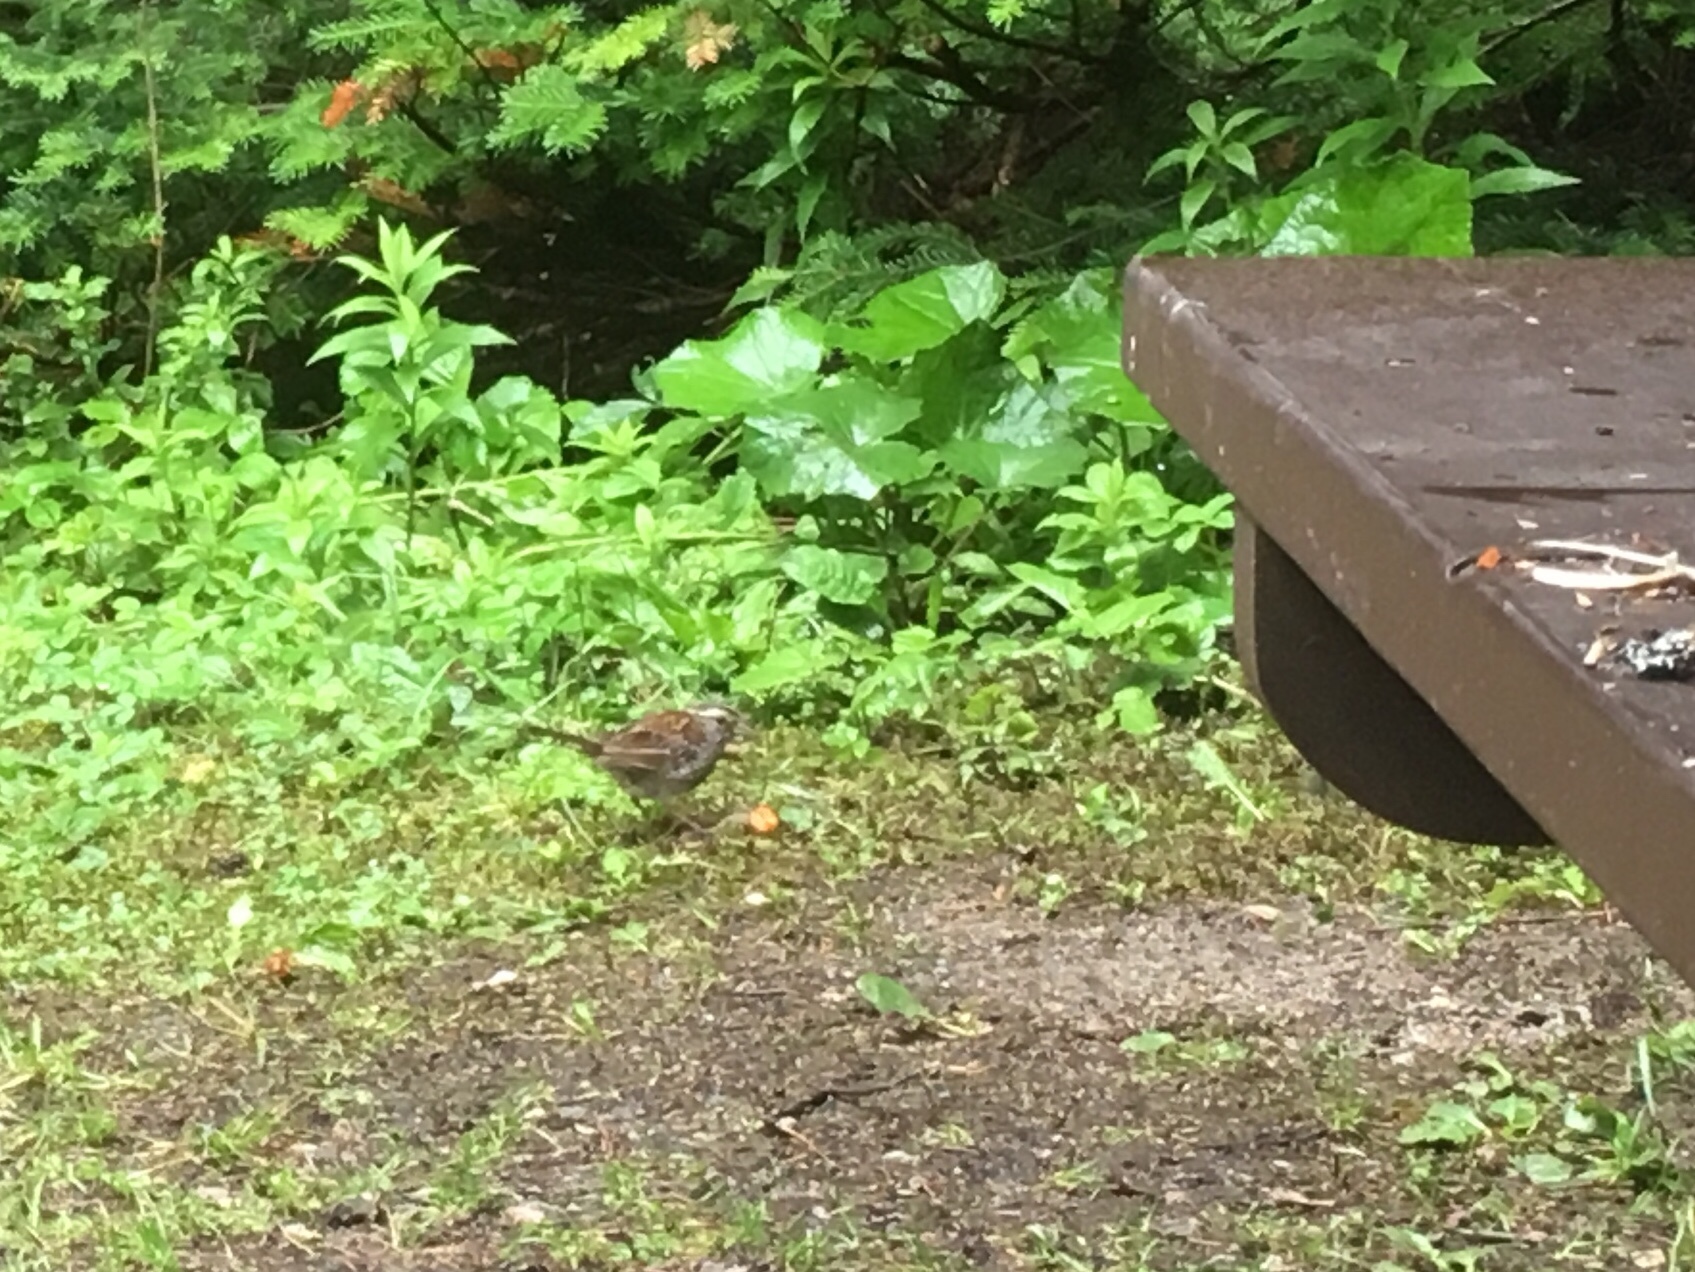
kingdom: Animalia
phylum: Chordata
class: Aves
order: Passeriformes
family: Passerellidae
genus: Zonotrichia
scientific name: Zonotrichia albicollis
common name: White-throated sparrow
